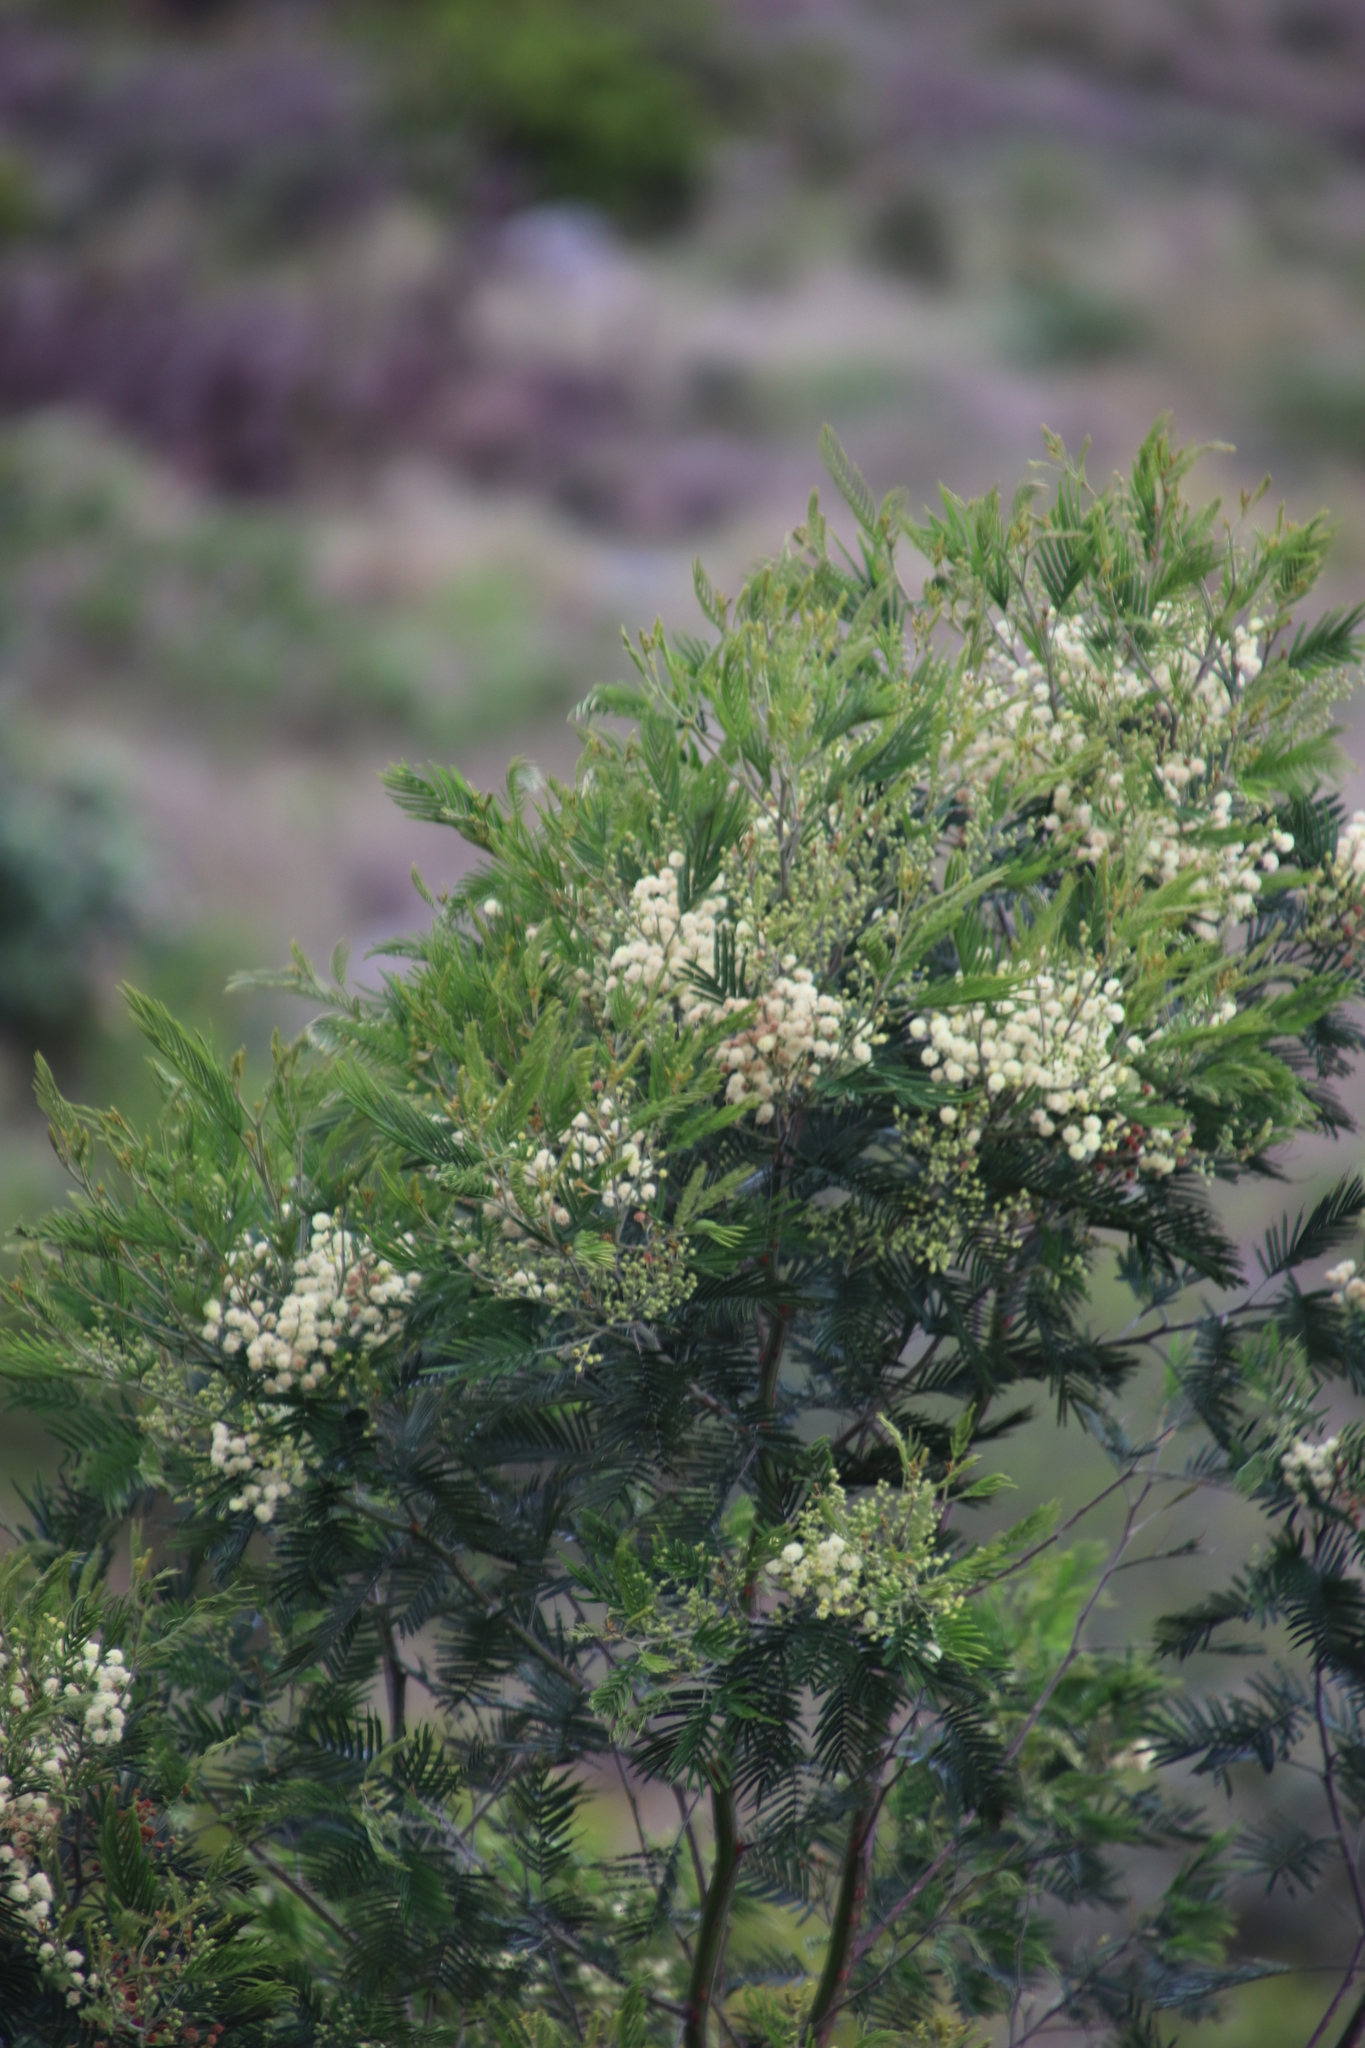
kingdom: Plantae
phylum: Tracheophyta
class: Magnoliopsida
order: Fabales
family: Fabaceae
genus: Acacia
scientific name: Acacia mearnsii
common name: Black wattle
